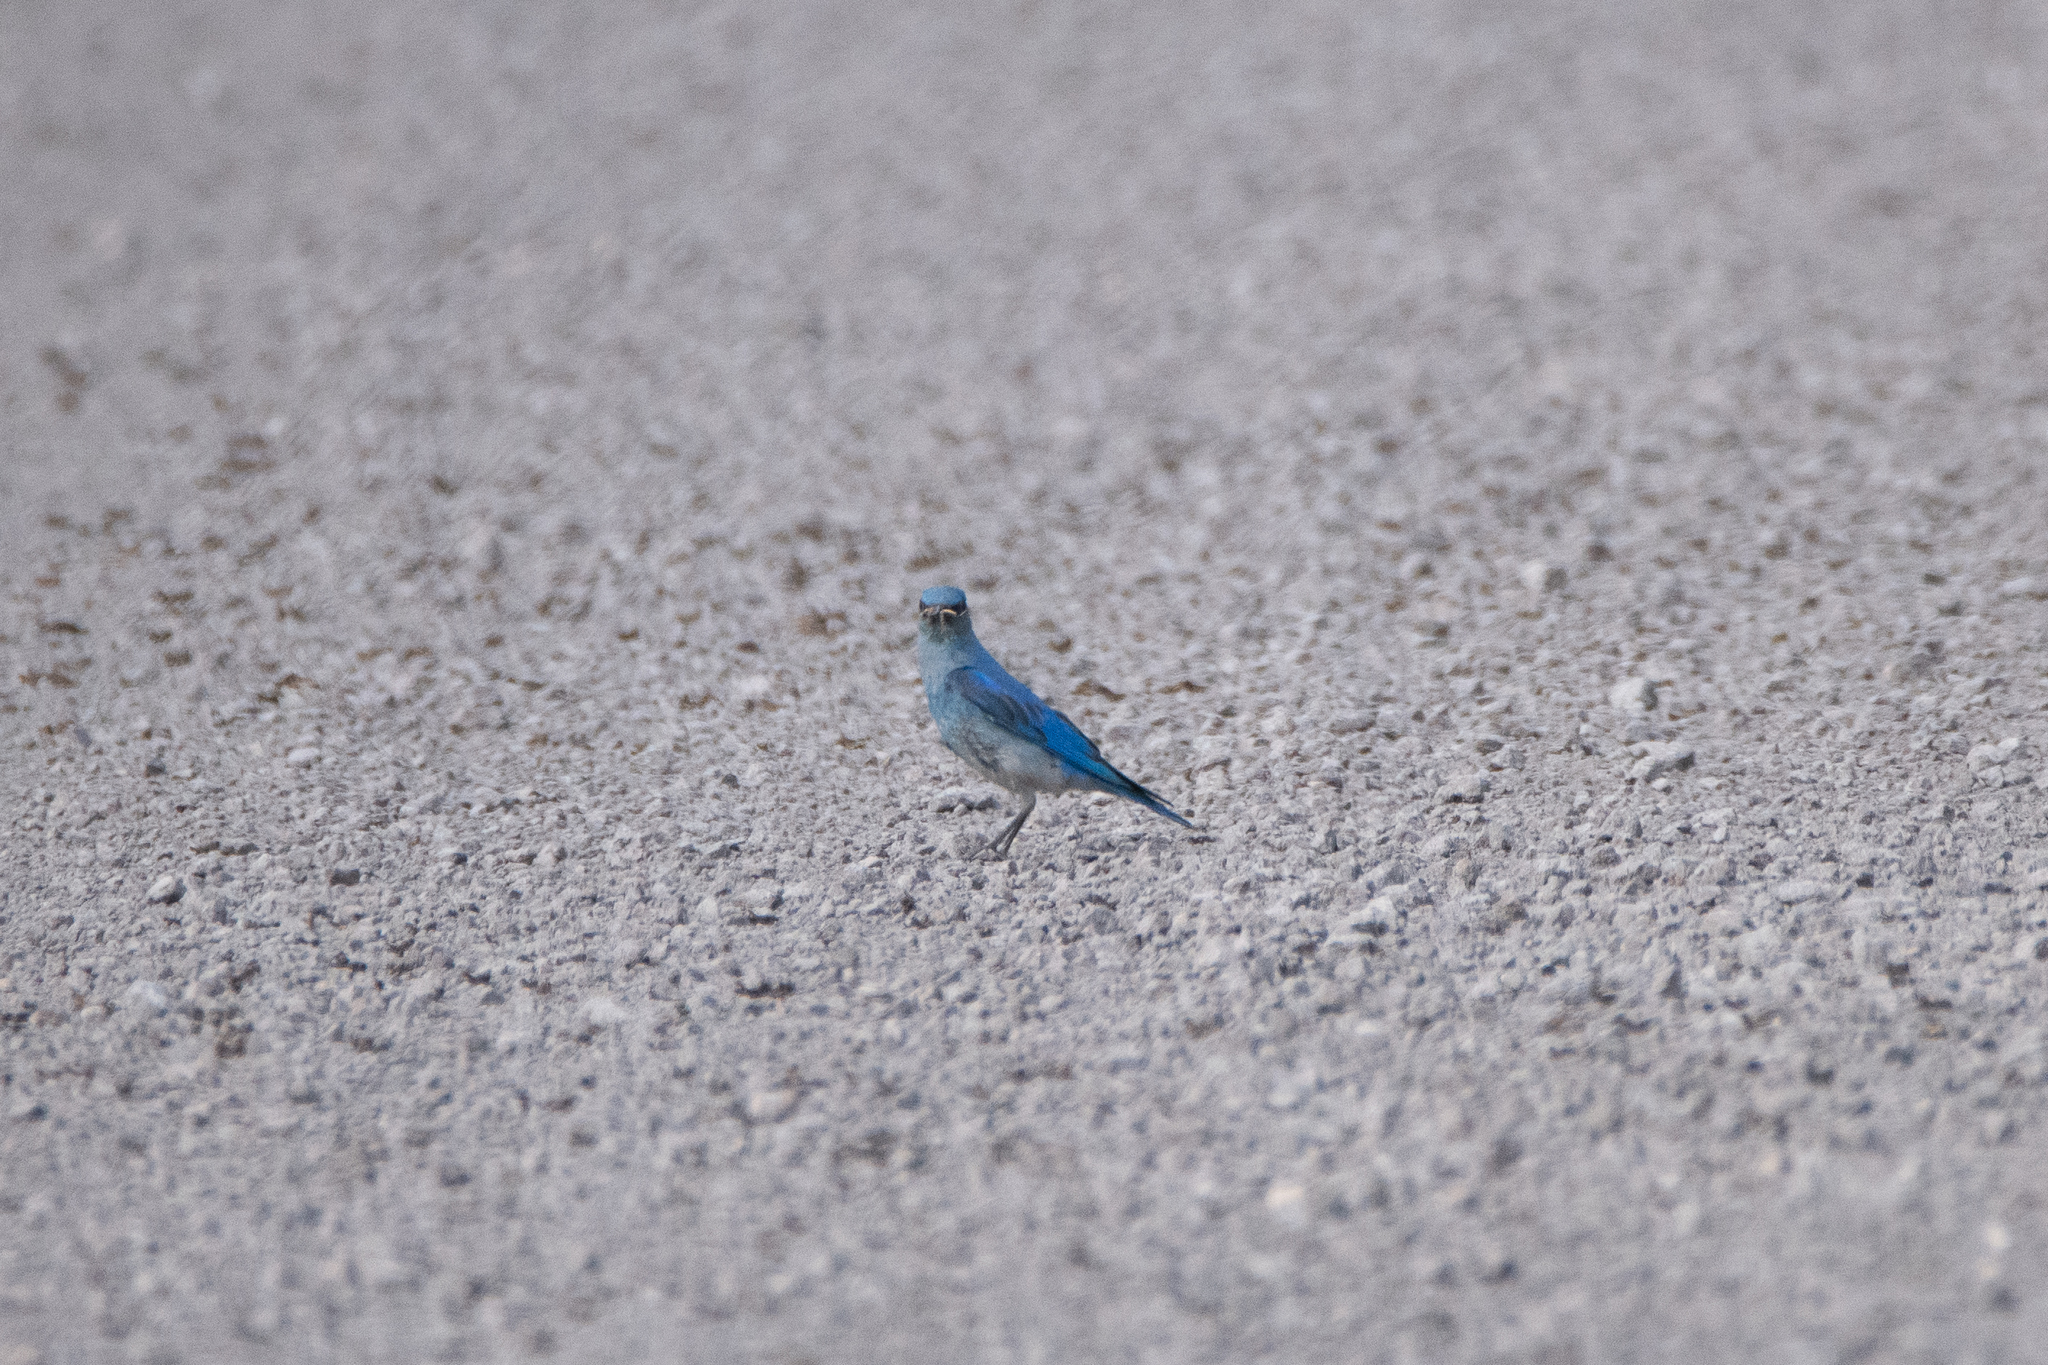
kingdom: Animalia
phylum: Chordata
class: Aves
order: Passeriformes
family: Turdidae
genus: Sialia
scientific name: Sialia currucoides
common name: Mountain bluebird
